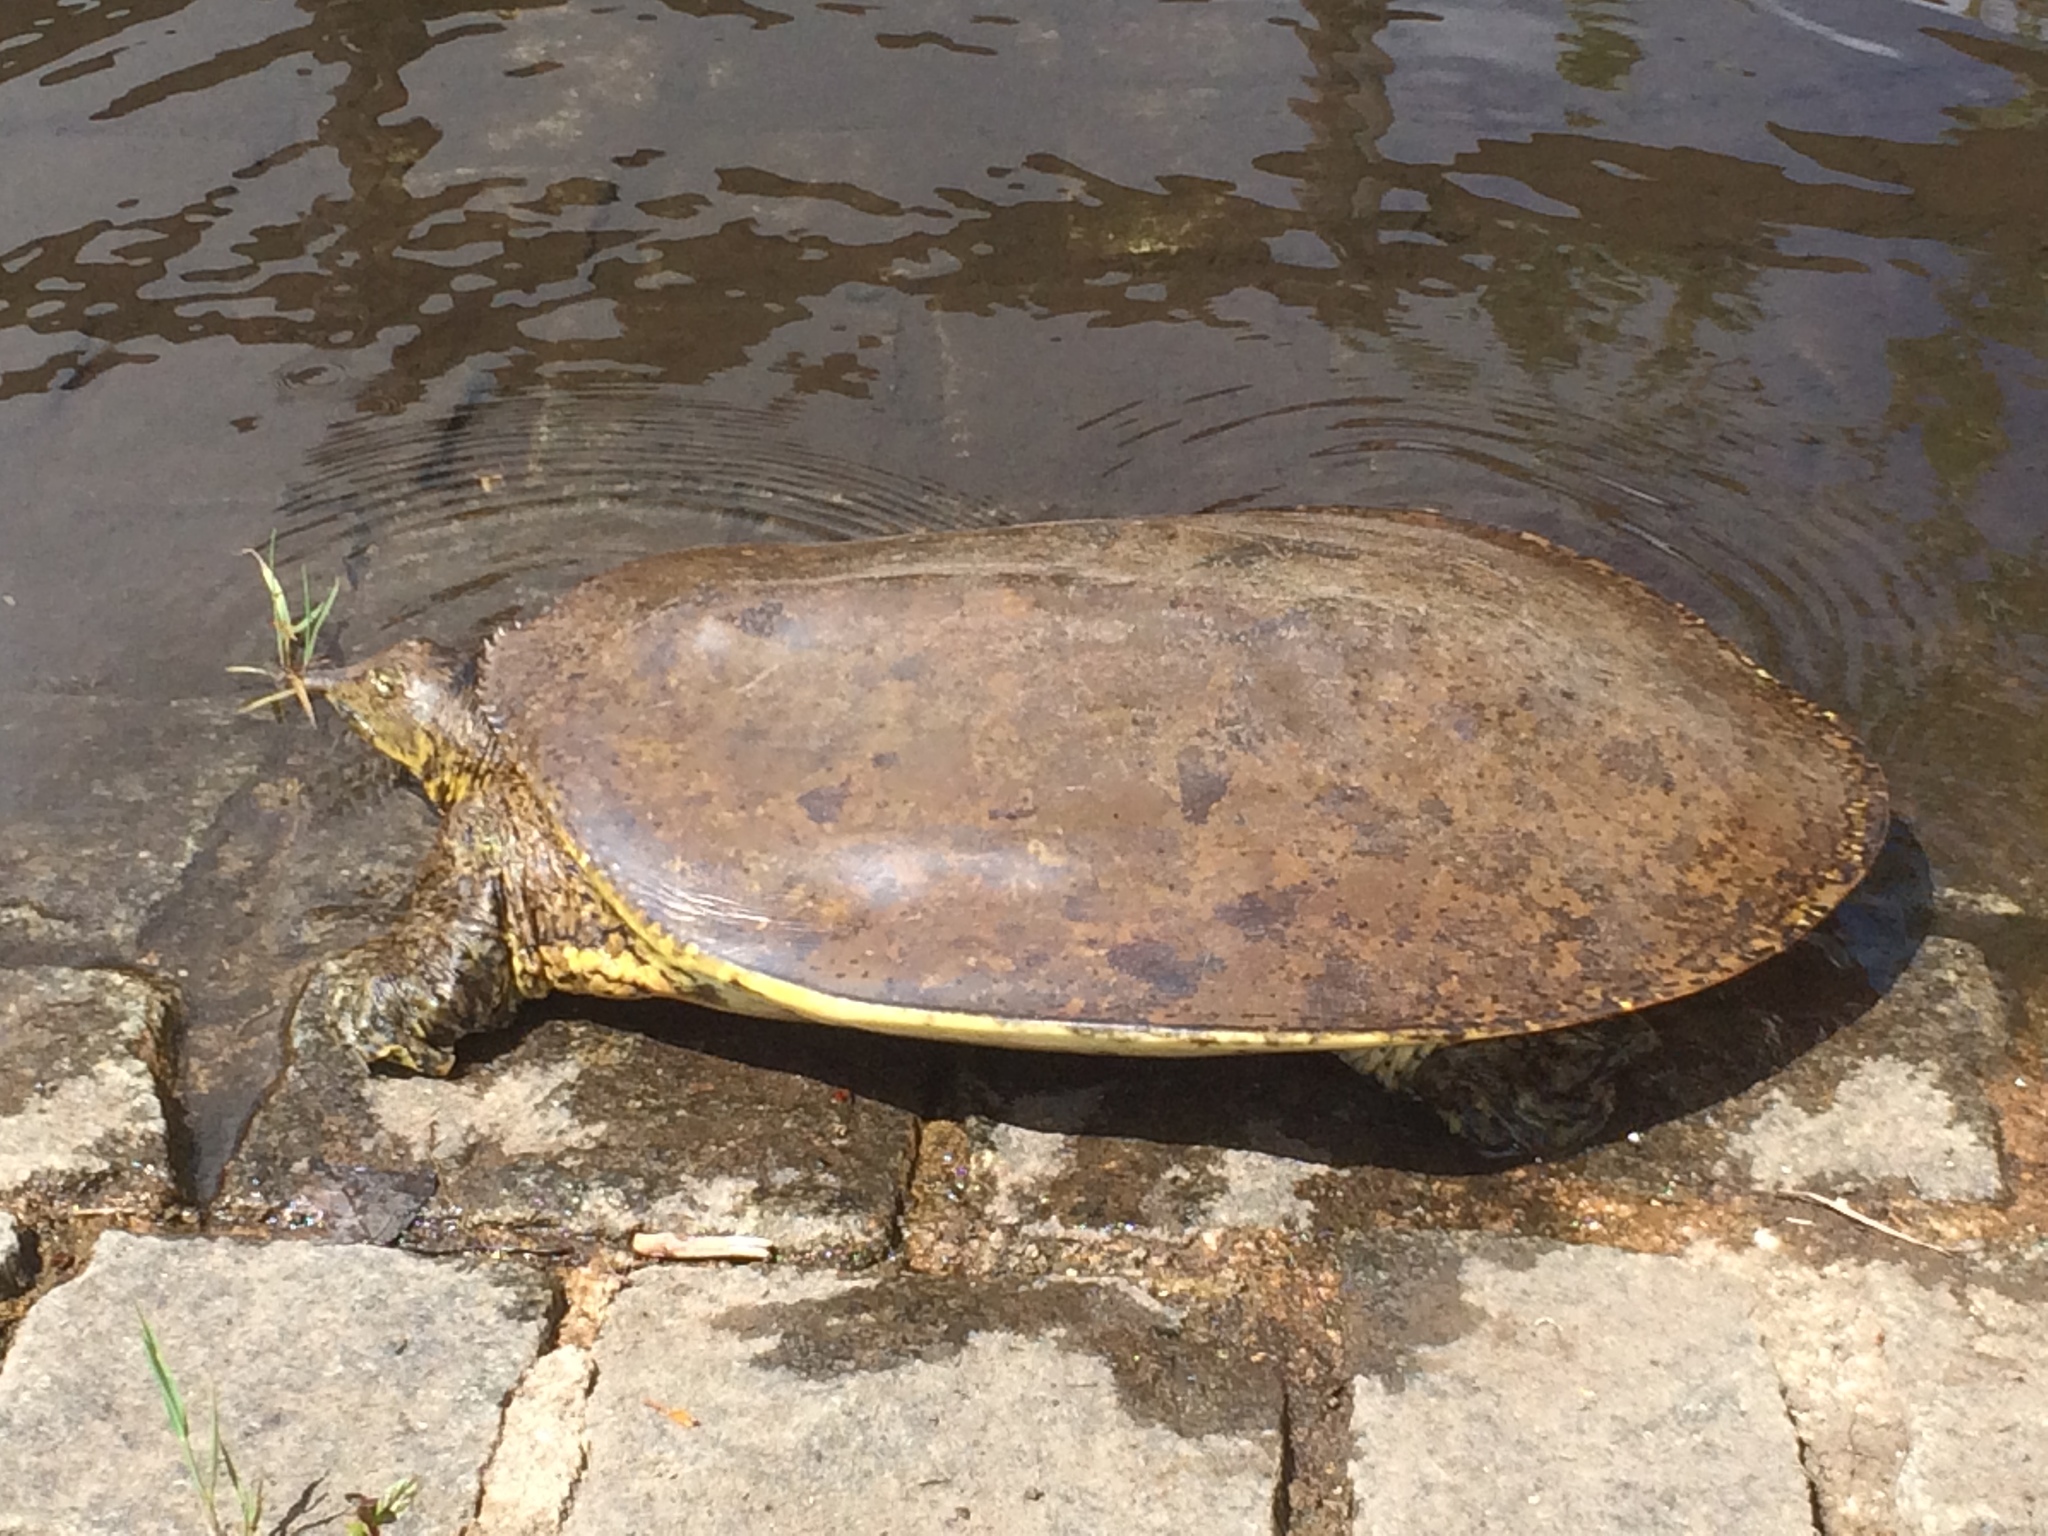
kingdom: Animalia
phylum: Chordata
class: Testudines
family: Trionychidae
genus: Apalone
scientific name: Apalone spinifera
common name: Spiny softshell turtle
